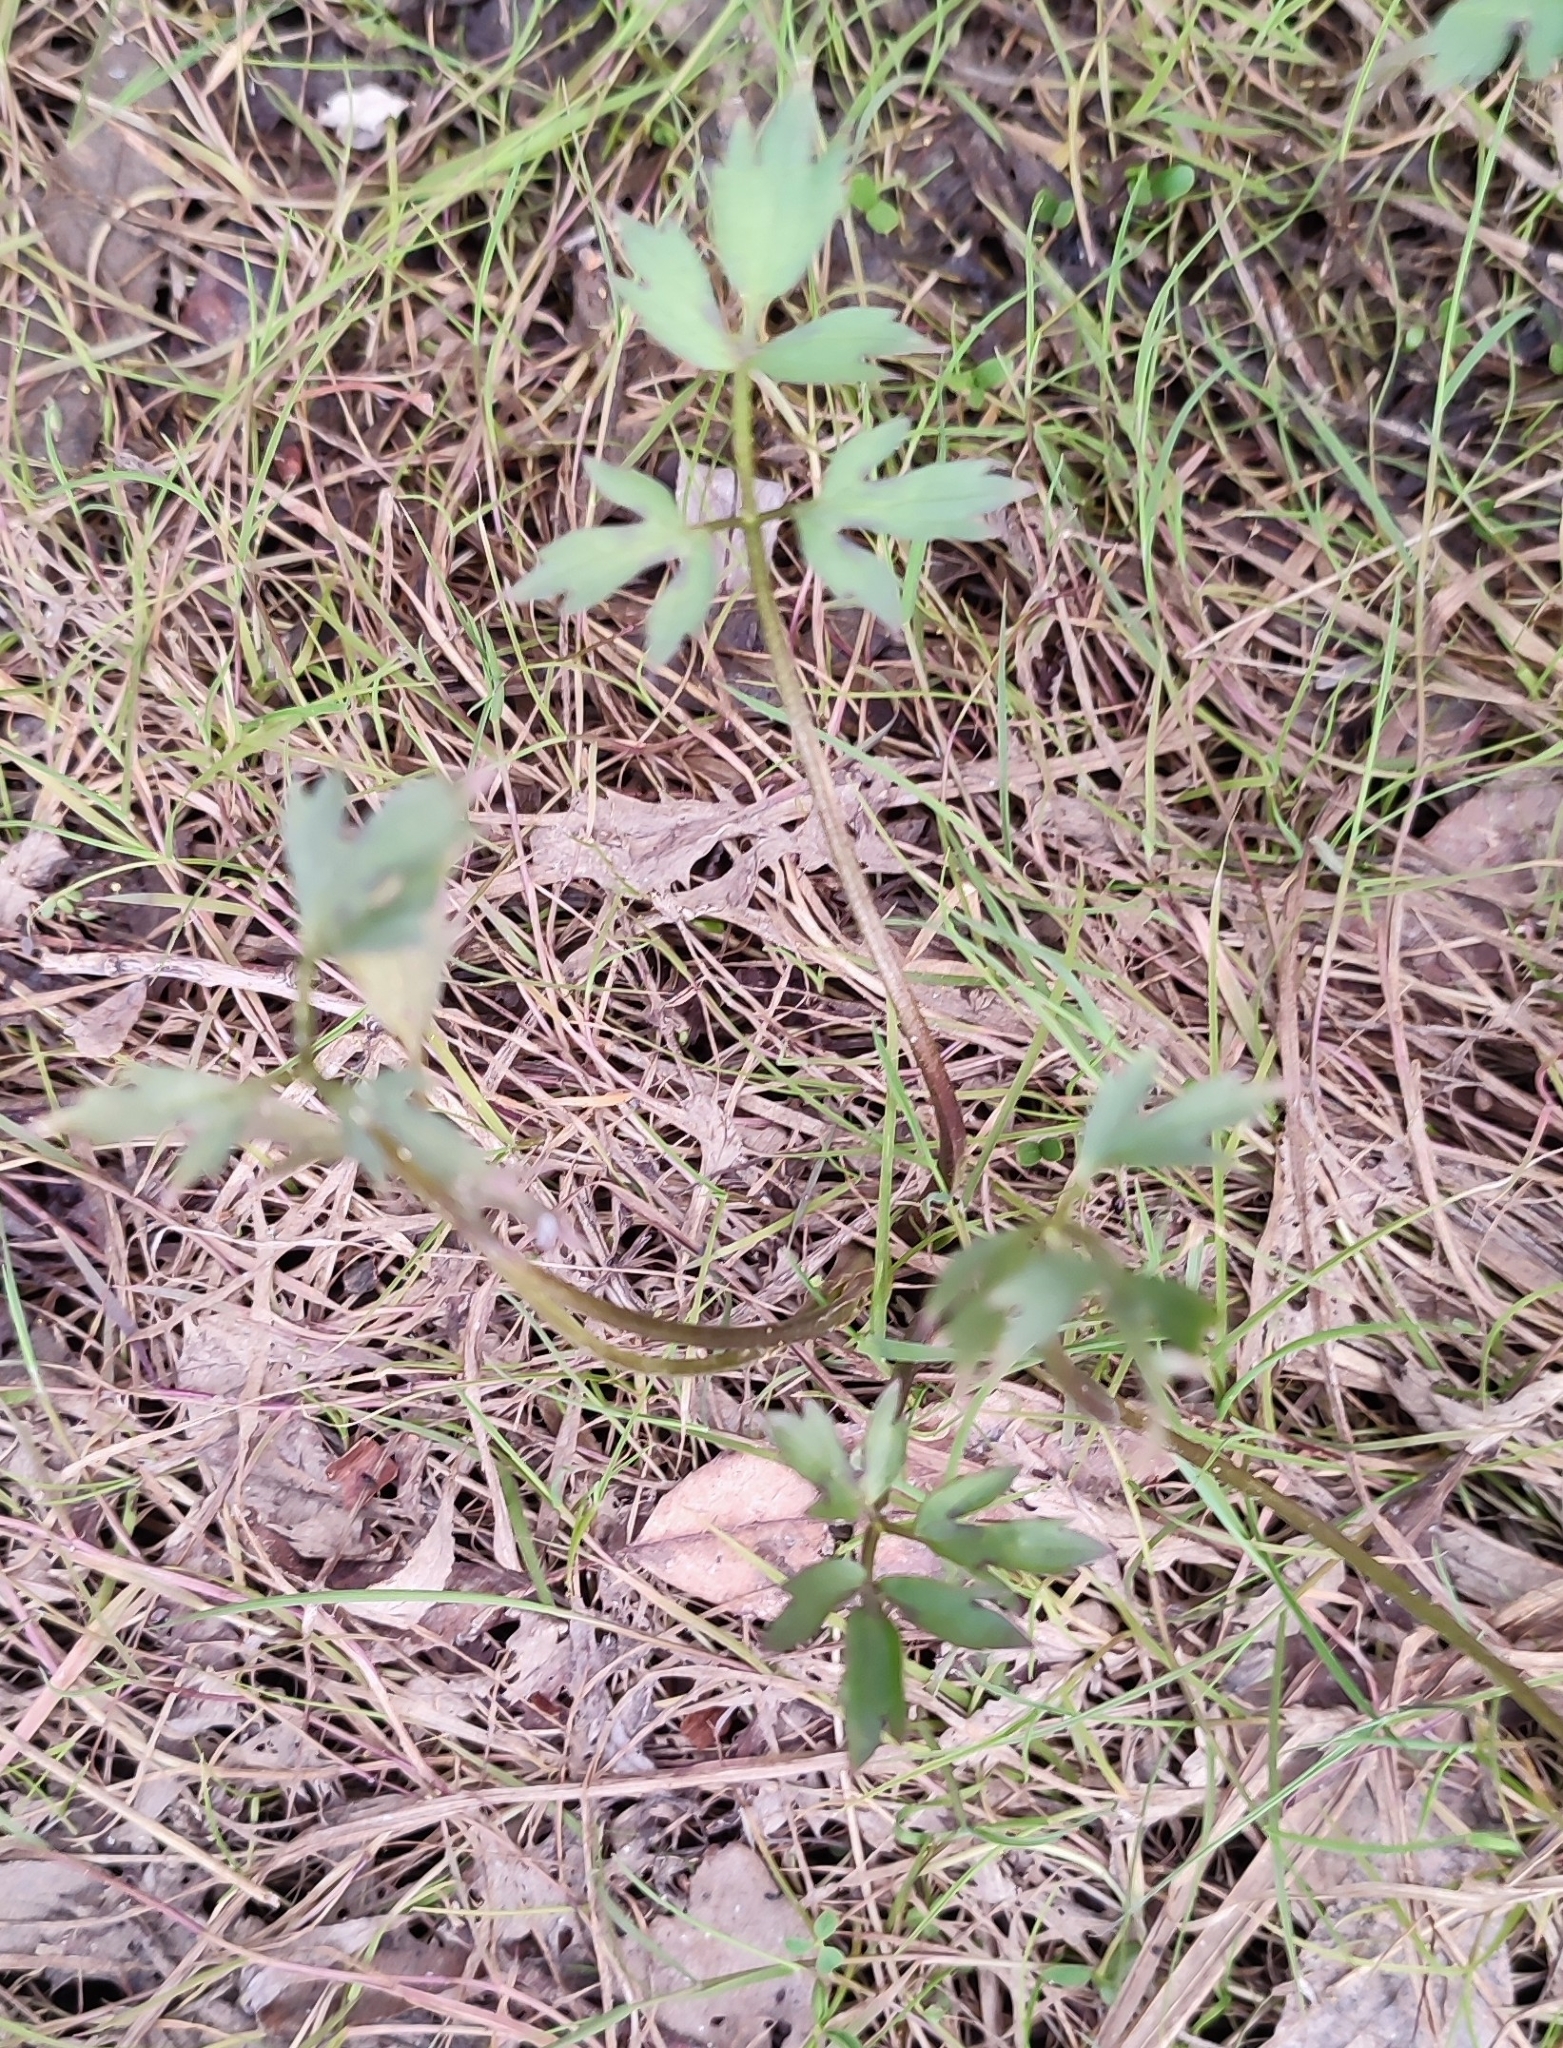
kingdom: Plantae
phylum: Tracheophyta
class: Magnoliopsida
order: Ranunculales
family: Ranunculaceae
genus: Ranunculus
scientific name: Ranunculus repens
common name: Creeping buttercup
